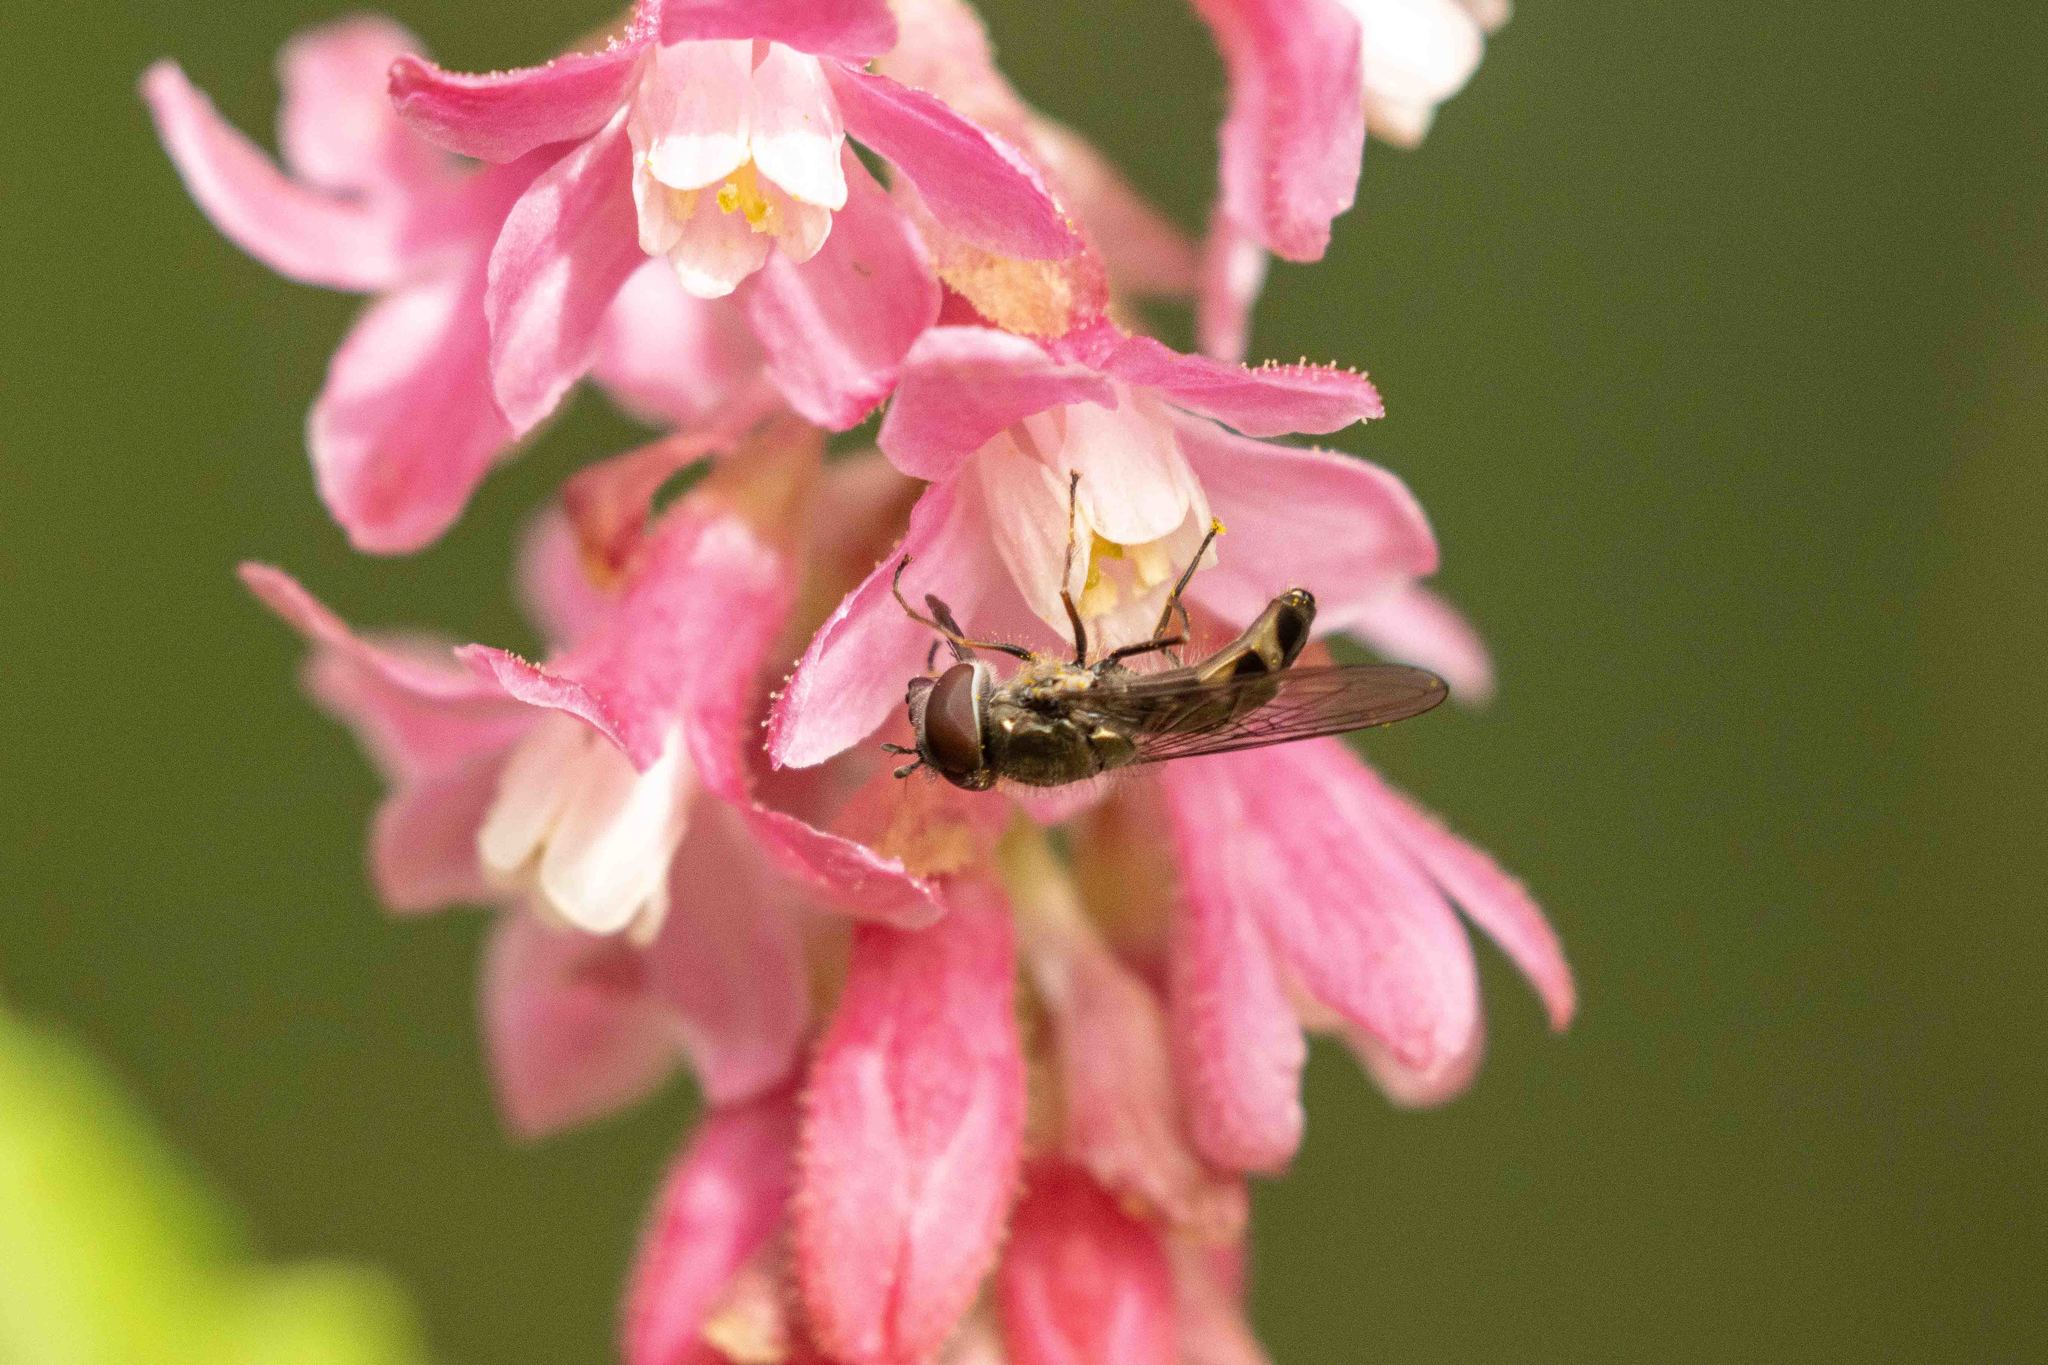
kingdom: Animalia
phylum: Arthropoda
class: Insecta
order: Diptera
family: Syrphidae
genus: Platycheirus
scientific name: Platycheirus trichopus
